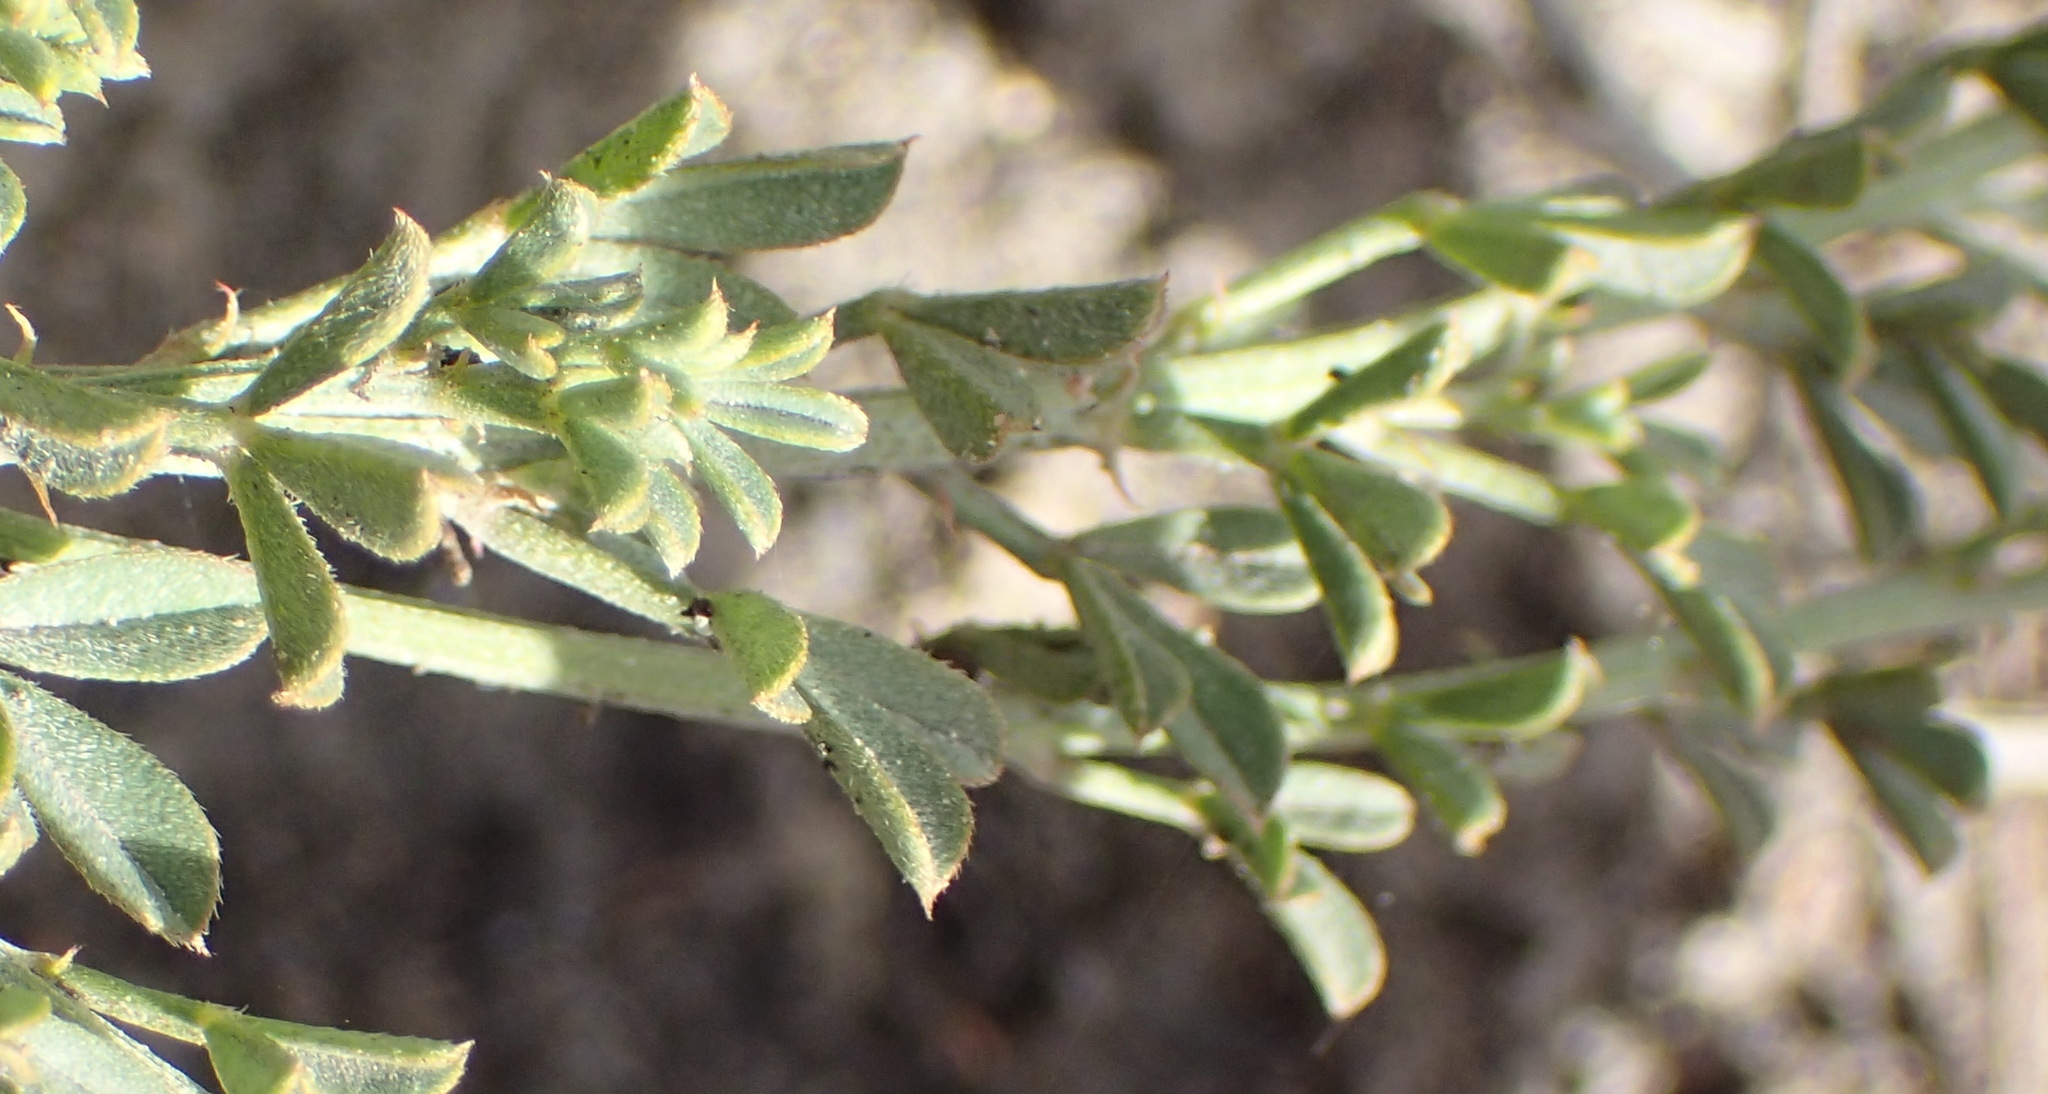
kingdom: Plantae
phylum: Tracheophyta
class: Magnoliopsida
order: Fabales
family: Fabaceae
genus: Indigofera
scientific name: Indigofera heterophylla
